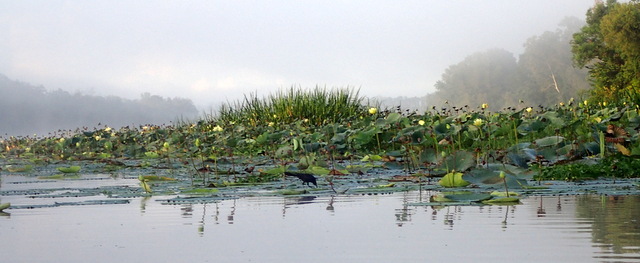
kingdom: Plantae
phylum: Tracheophyta
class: Magnoliopsida
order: Proteales
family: Nelumbonaceae
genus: Nelumbo
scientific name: Nelumbo lutea
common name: American lotus
